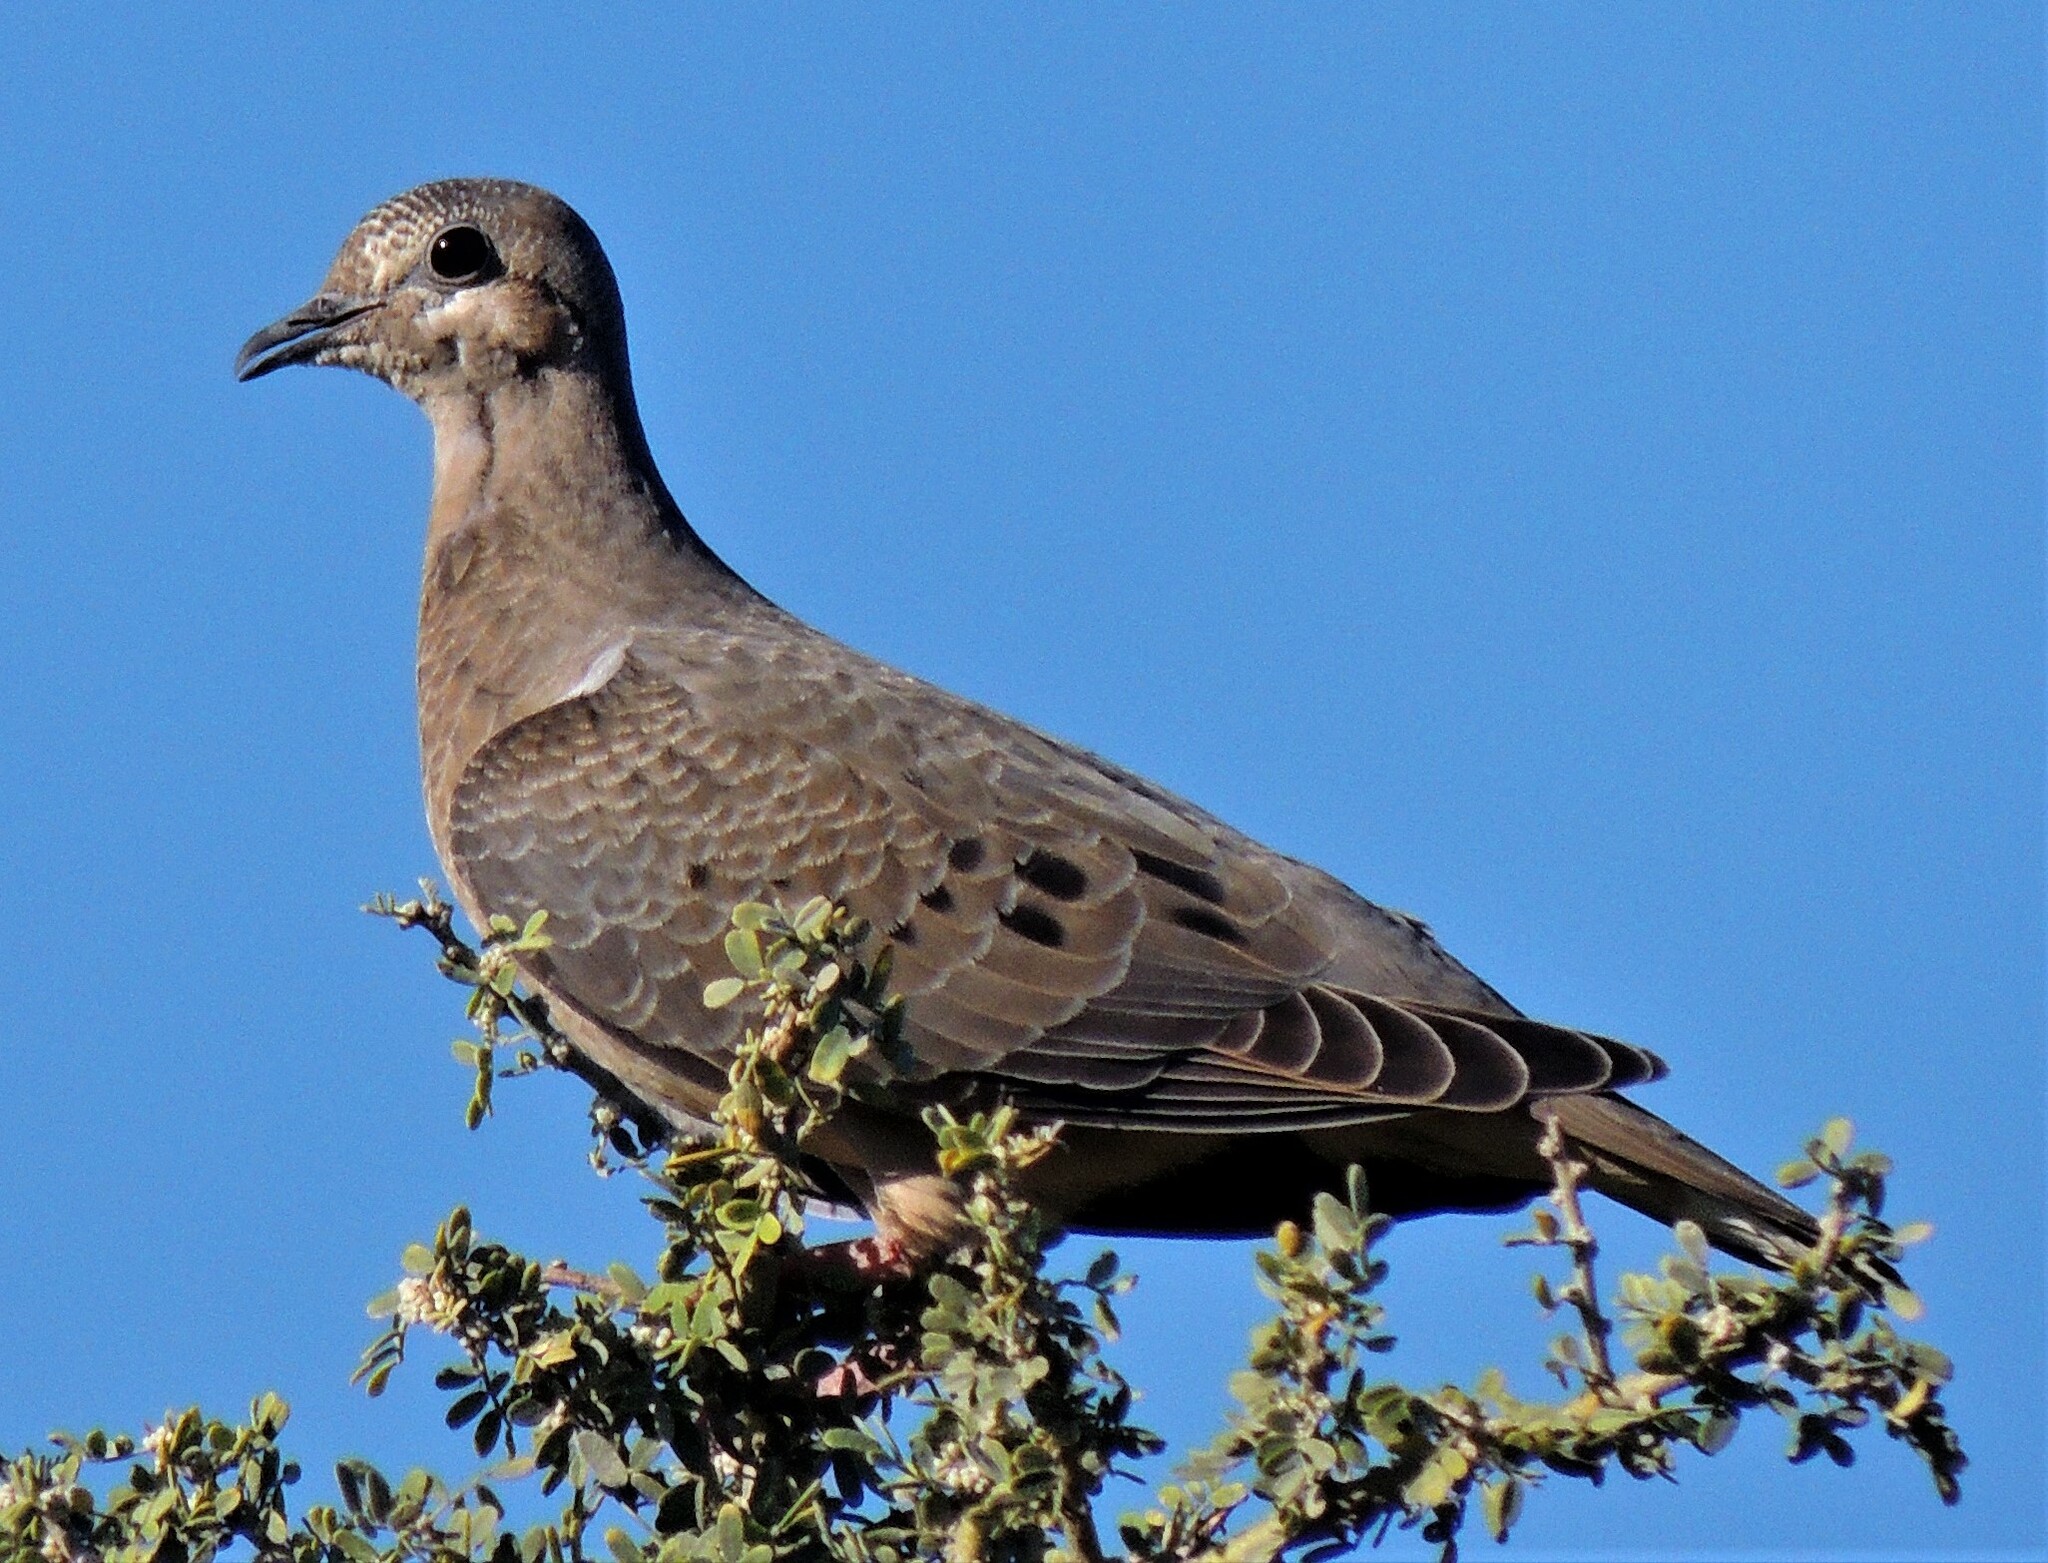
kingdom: Animalia
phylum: Chordata
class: Aves
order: Columbiformes
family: Columbidae
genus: Zenaida
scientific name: Zenaida auriculata
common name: Eared dove
